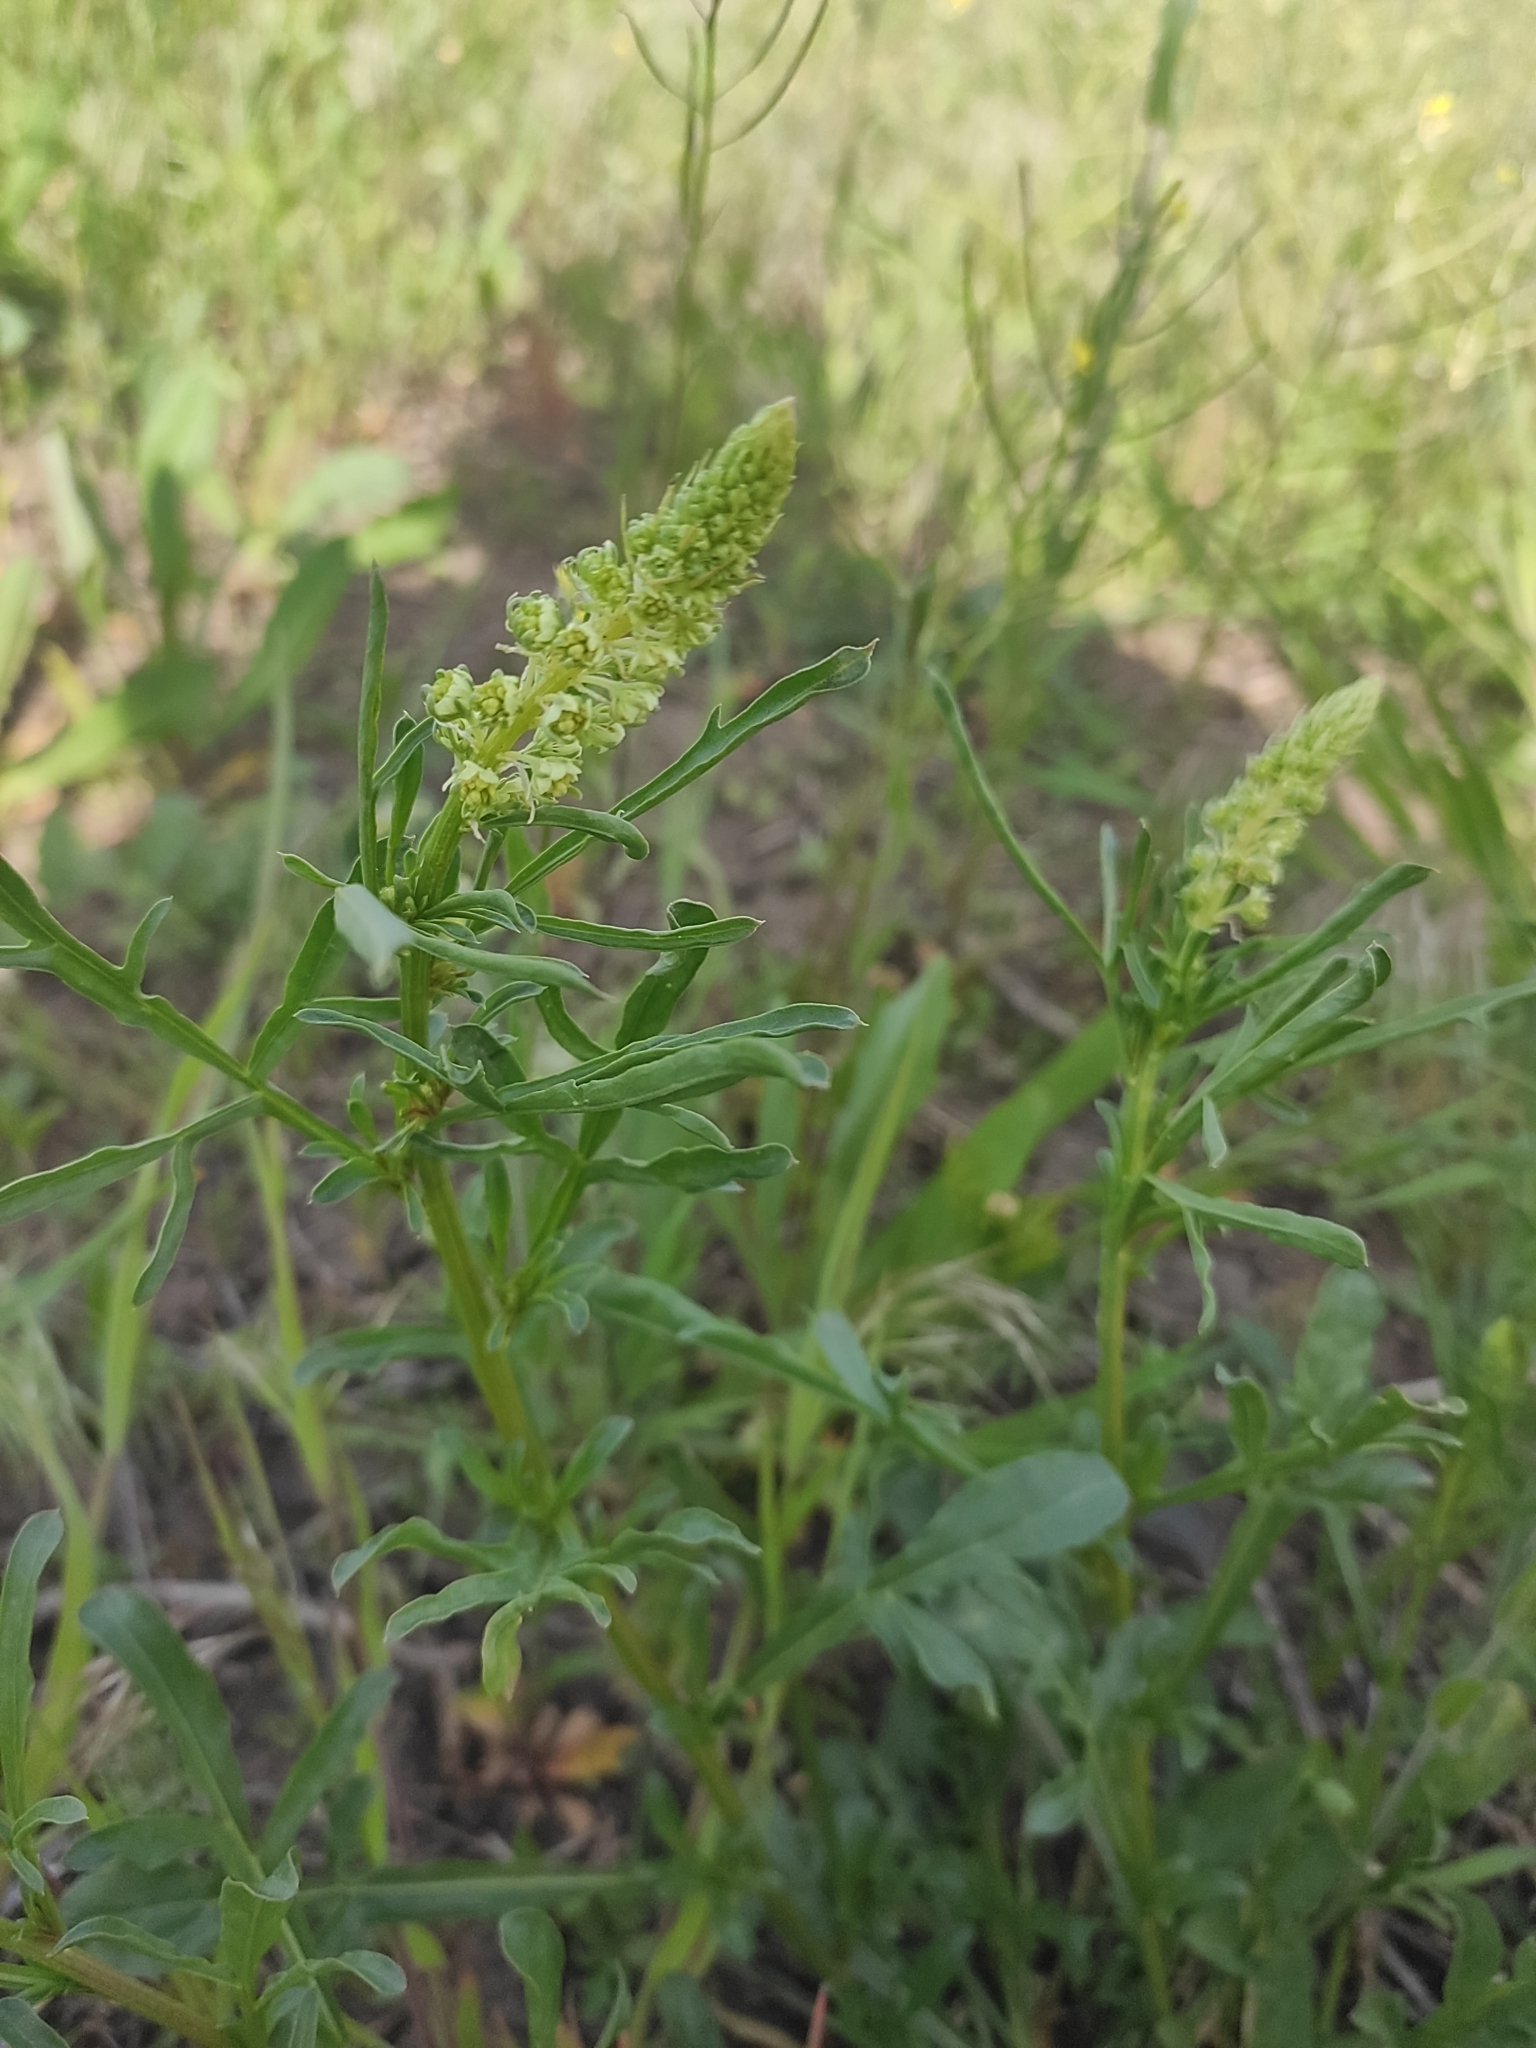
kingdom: Plantae
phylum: Tracheophyta
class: Magnoliopsida
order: Brassicales
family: Resedaceae
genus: Reseda
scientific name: Reseda lutea
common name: Wild mignonette
